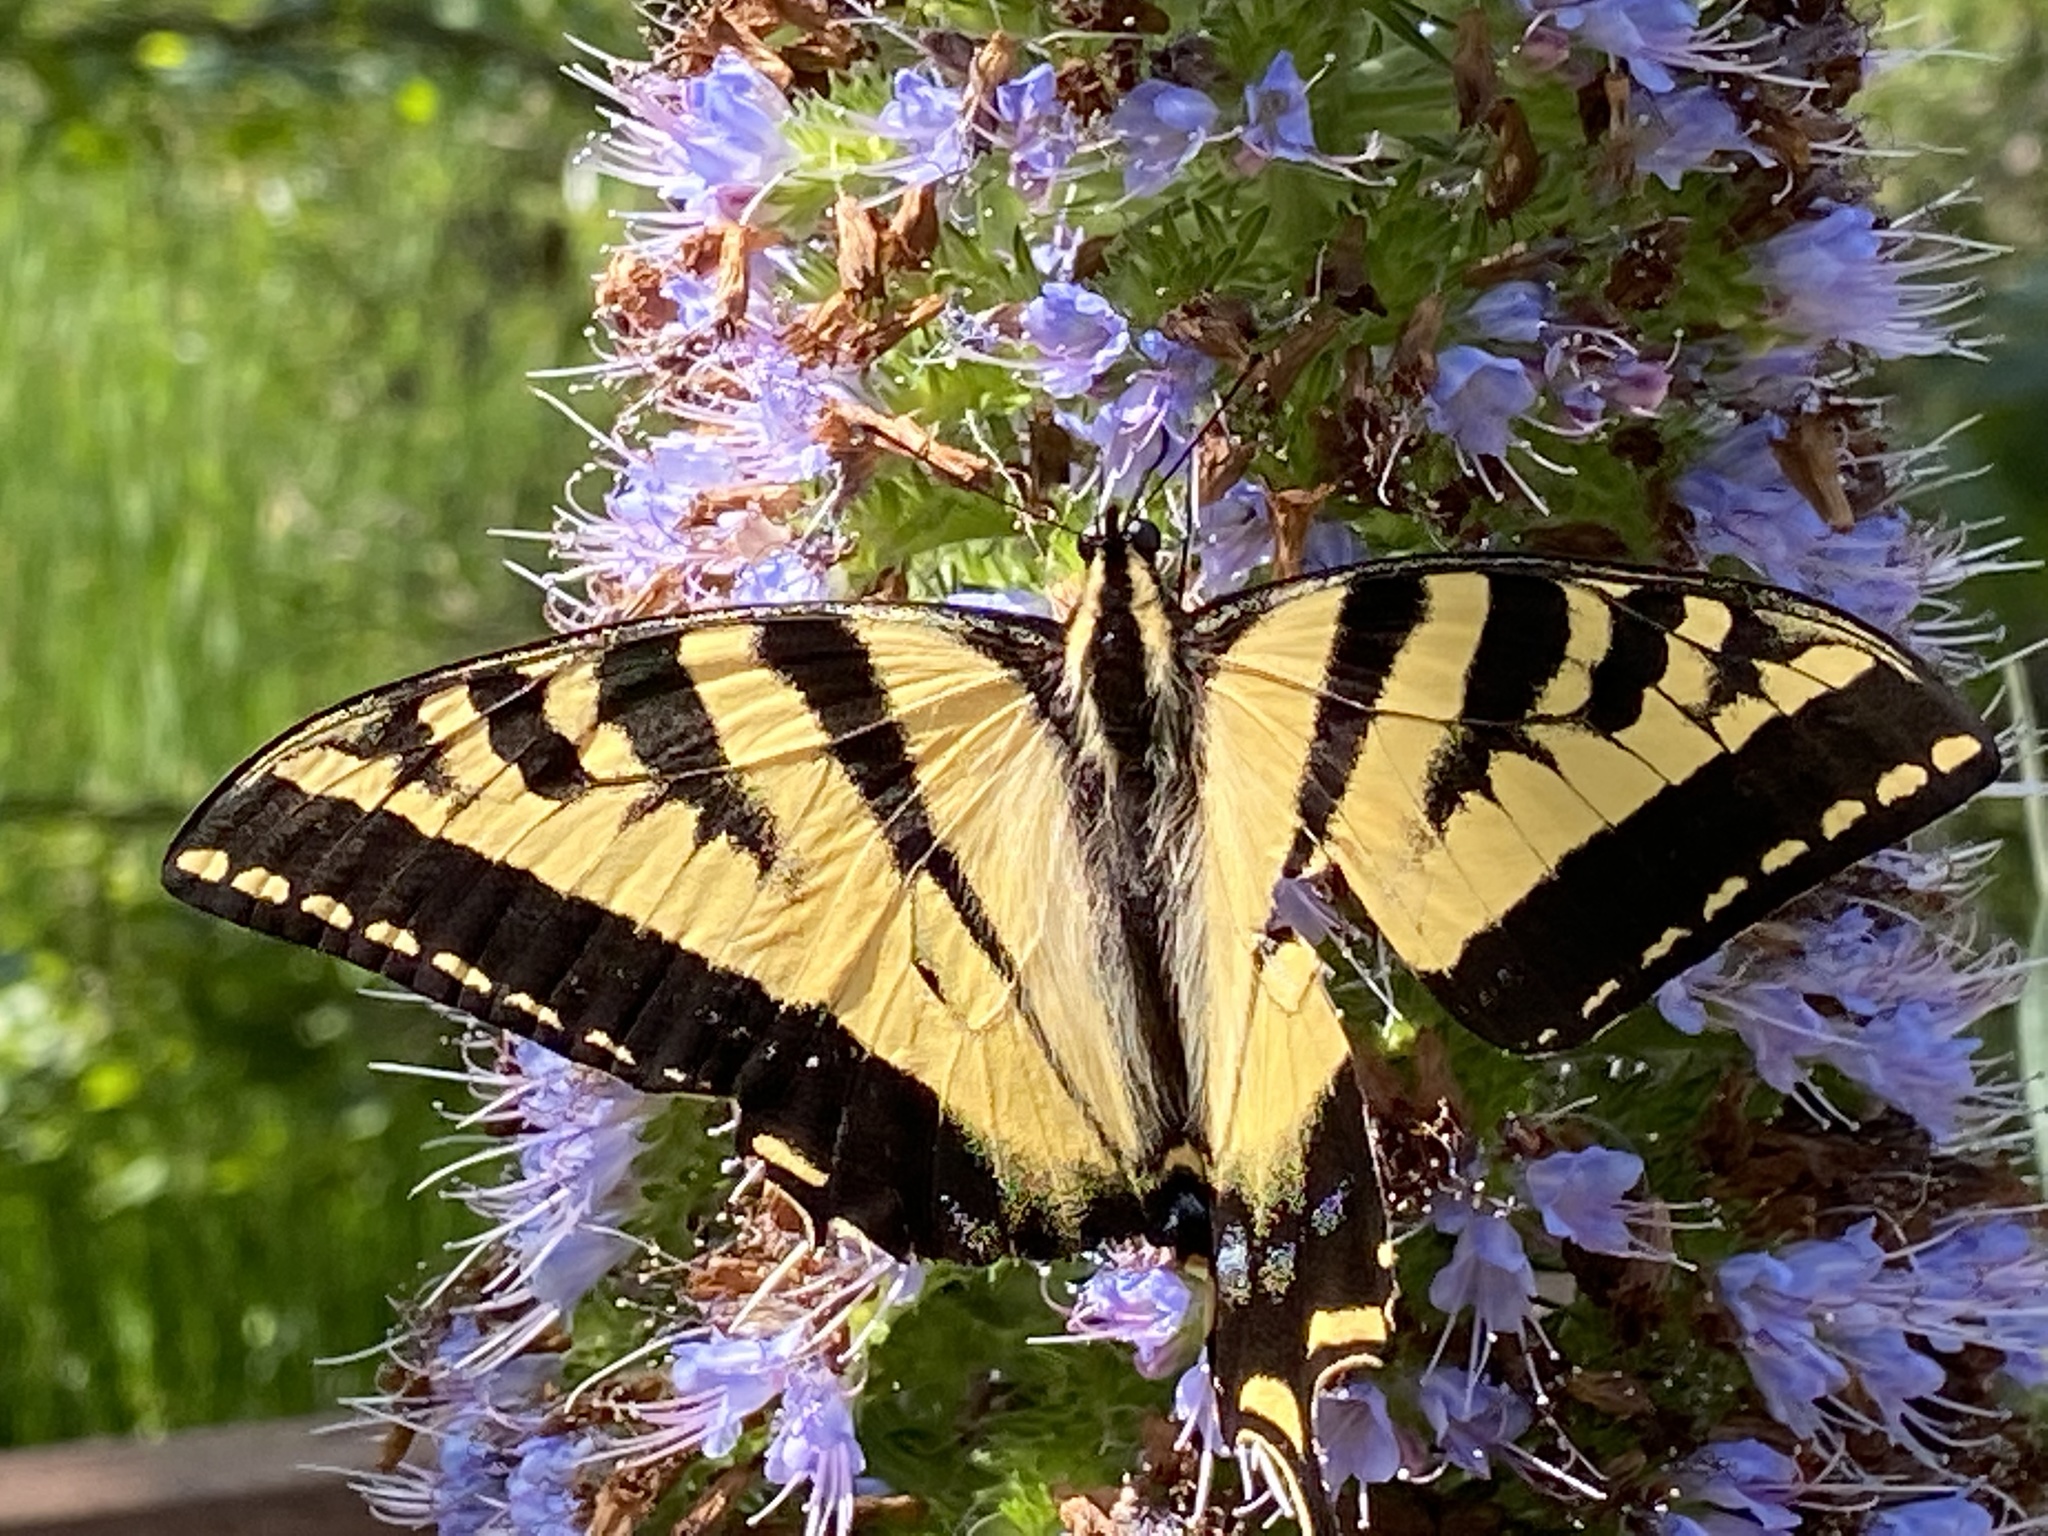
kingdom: Animalia
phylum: Arthropoda
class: Insecta
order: Lepidoptera
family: Papilionidae
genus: Papilio
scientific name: Papilio rutulus
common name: Western tiger swallowtail
